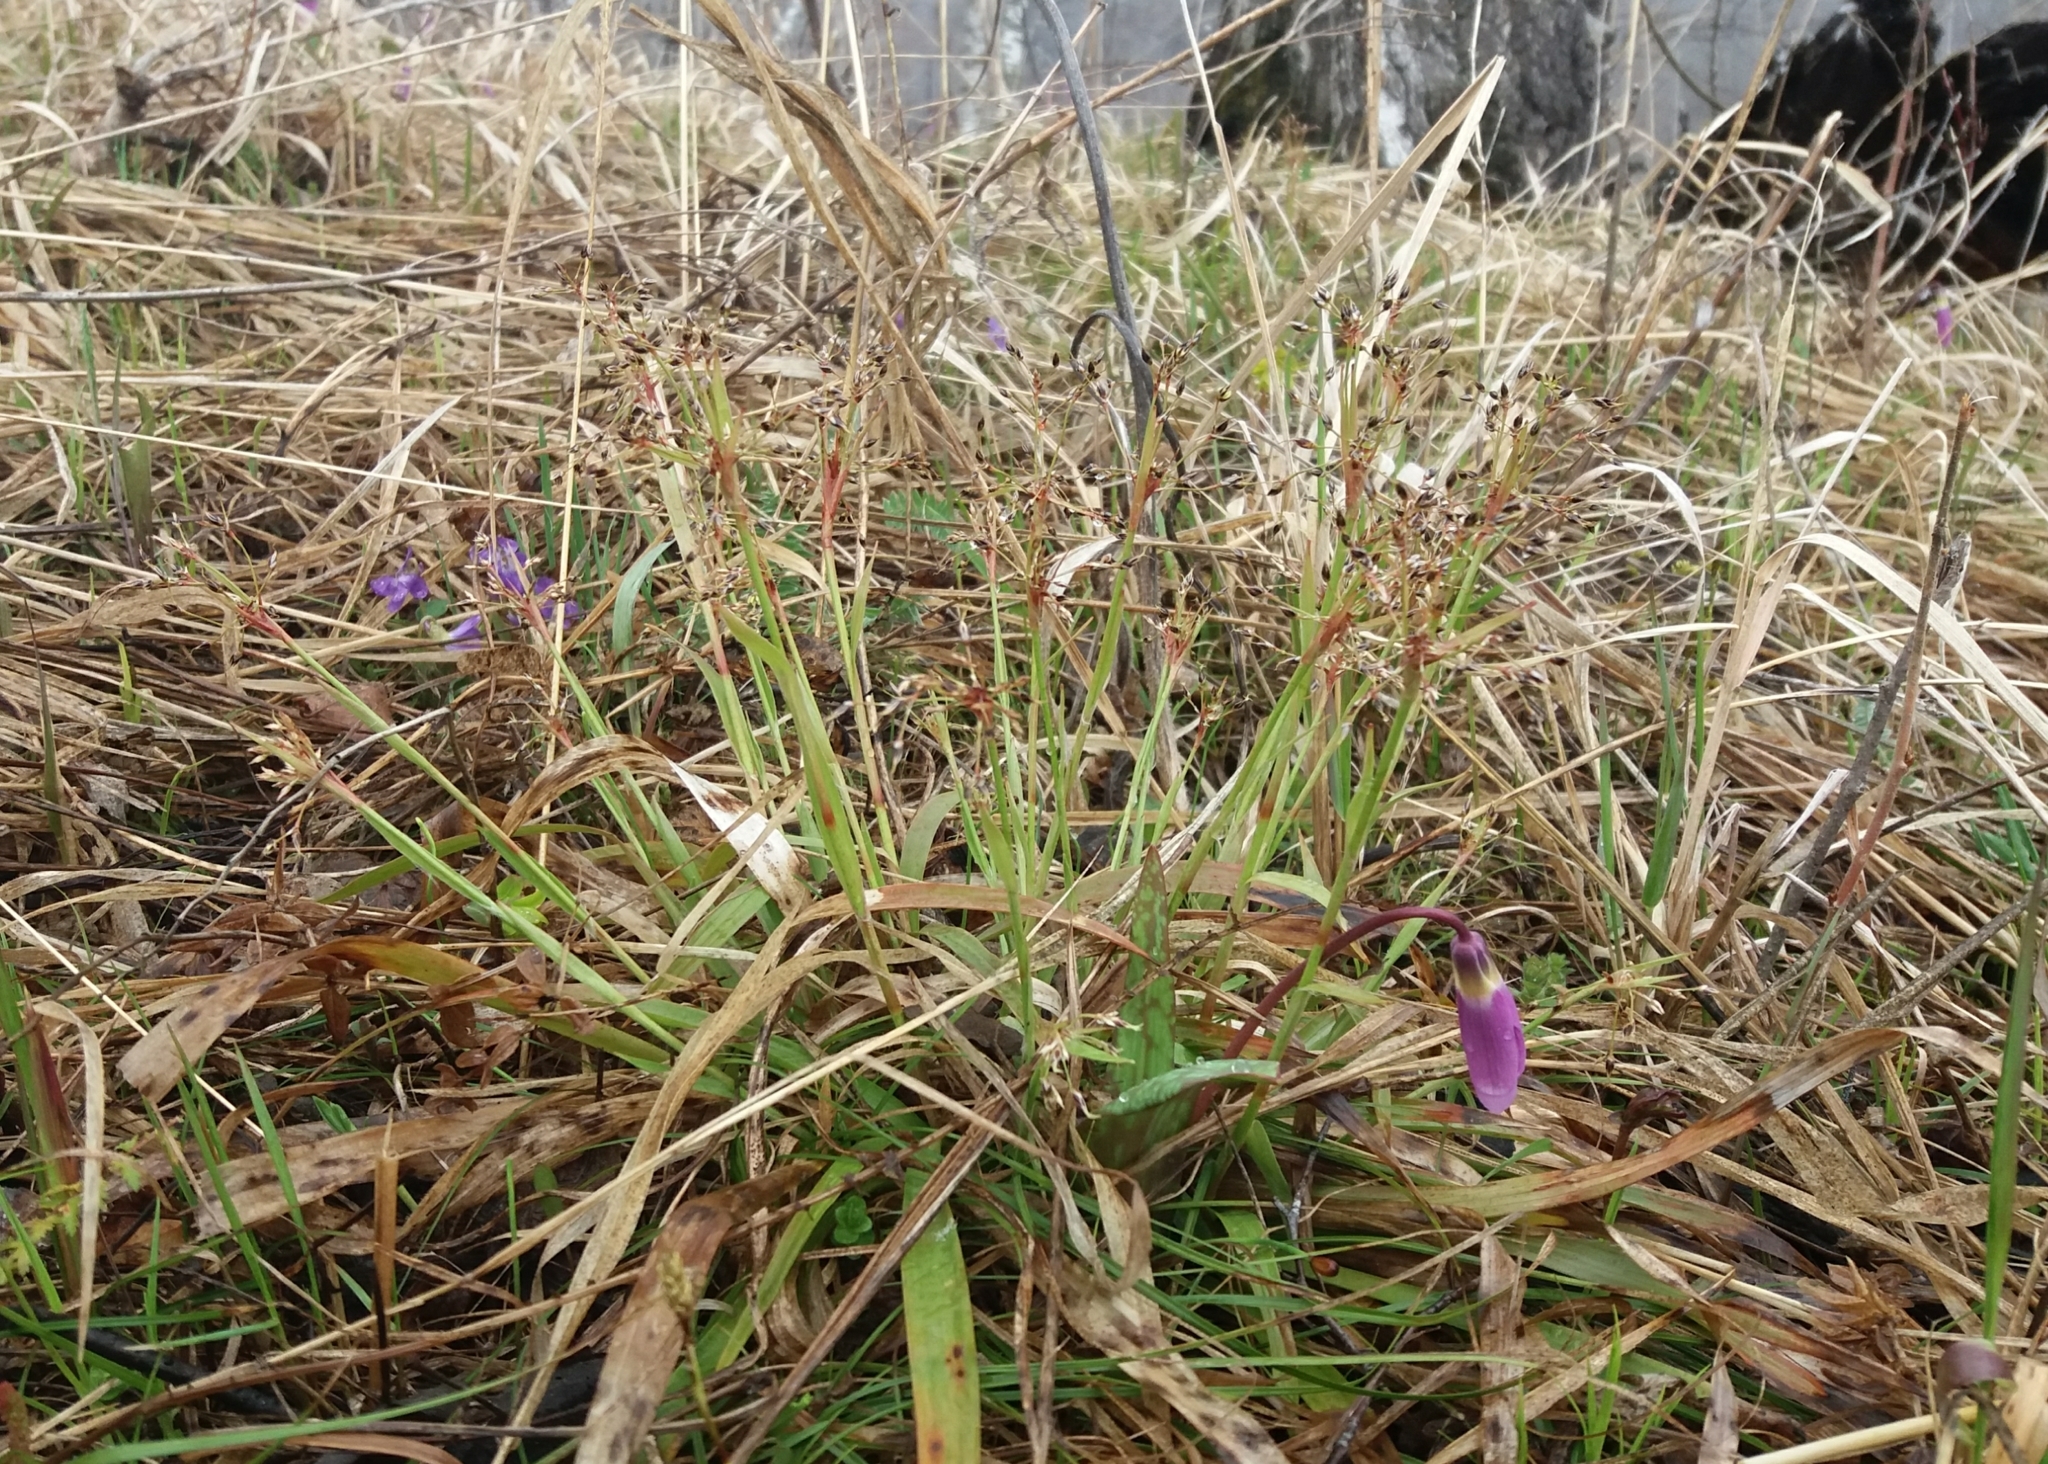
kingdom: Plantae
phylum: Tracheophyta
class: Liliopsida
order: Poales
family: Juncaceae
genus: Luzula
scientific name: Luzula pilosa
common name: Hairy wood-rush
